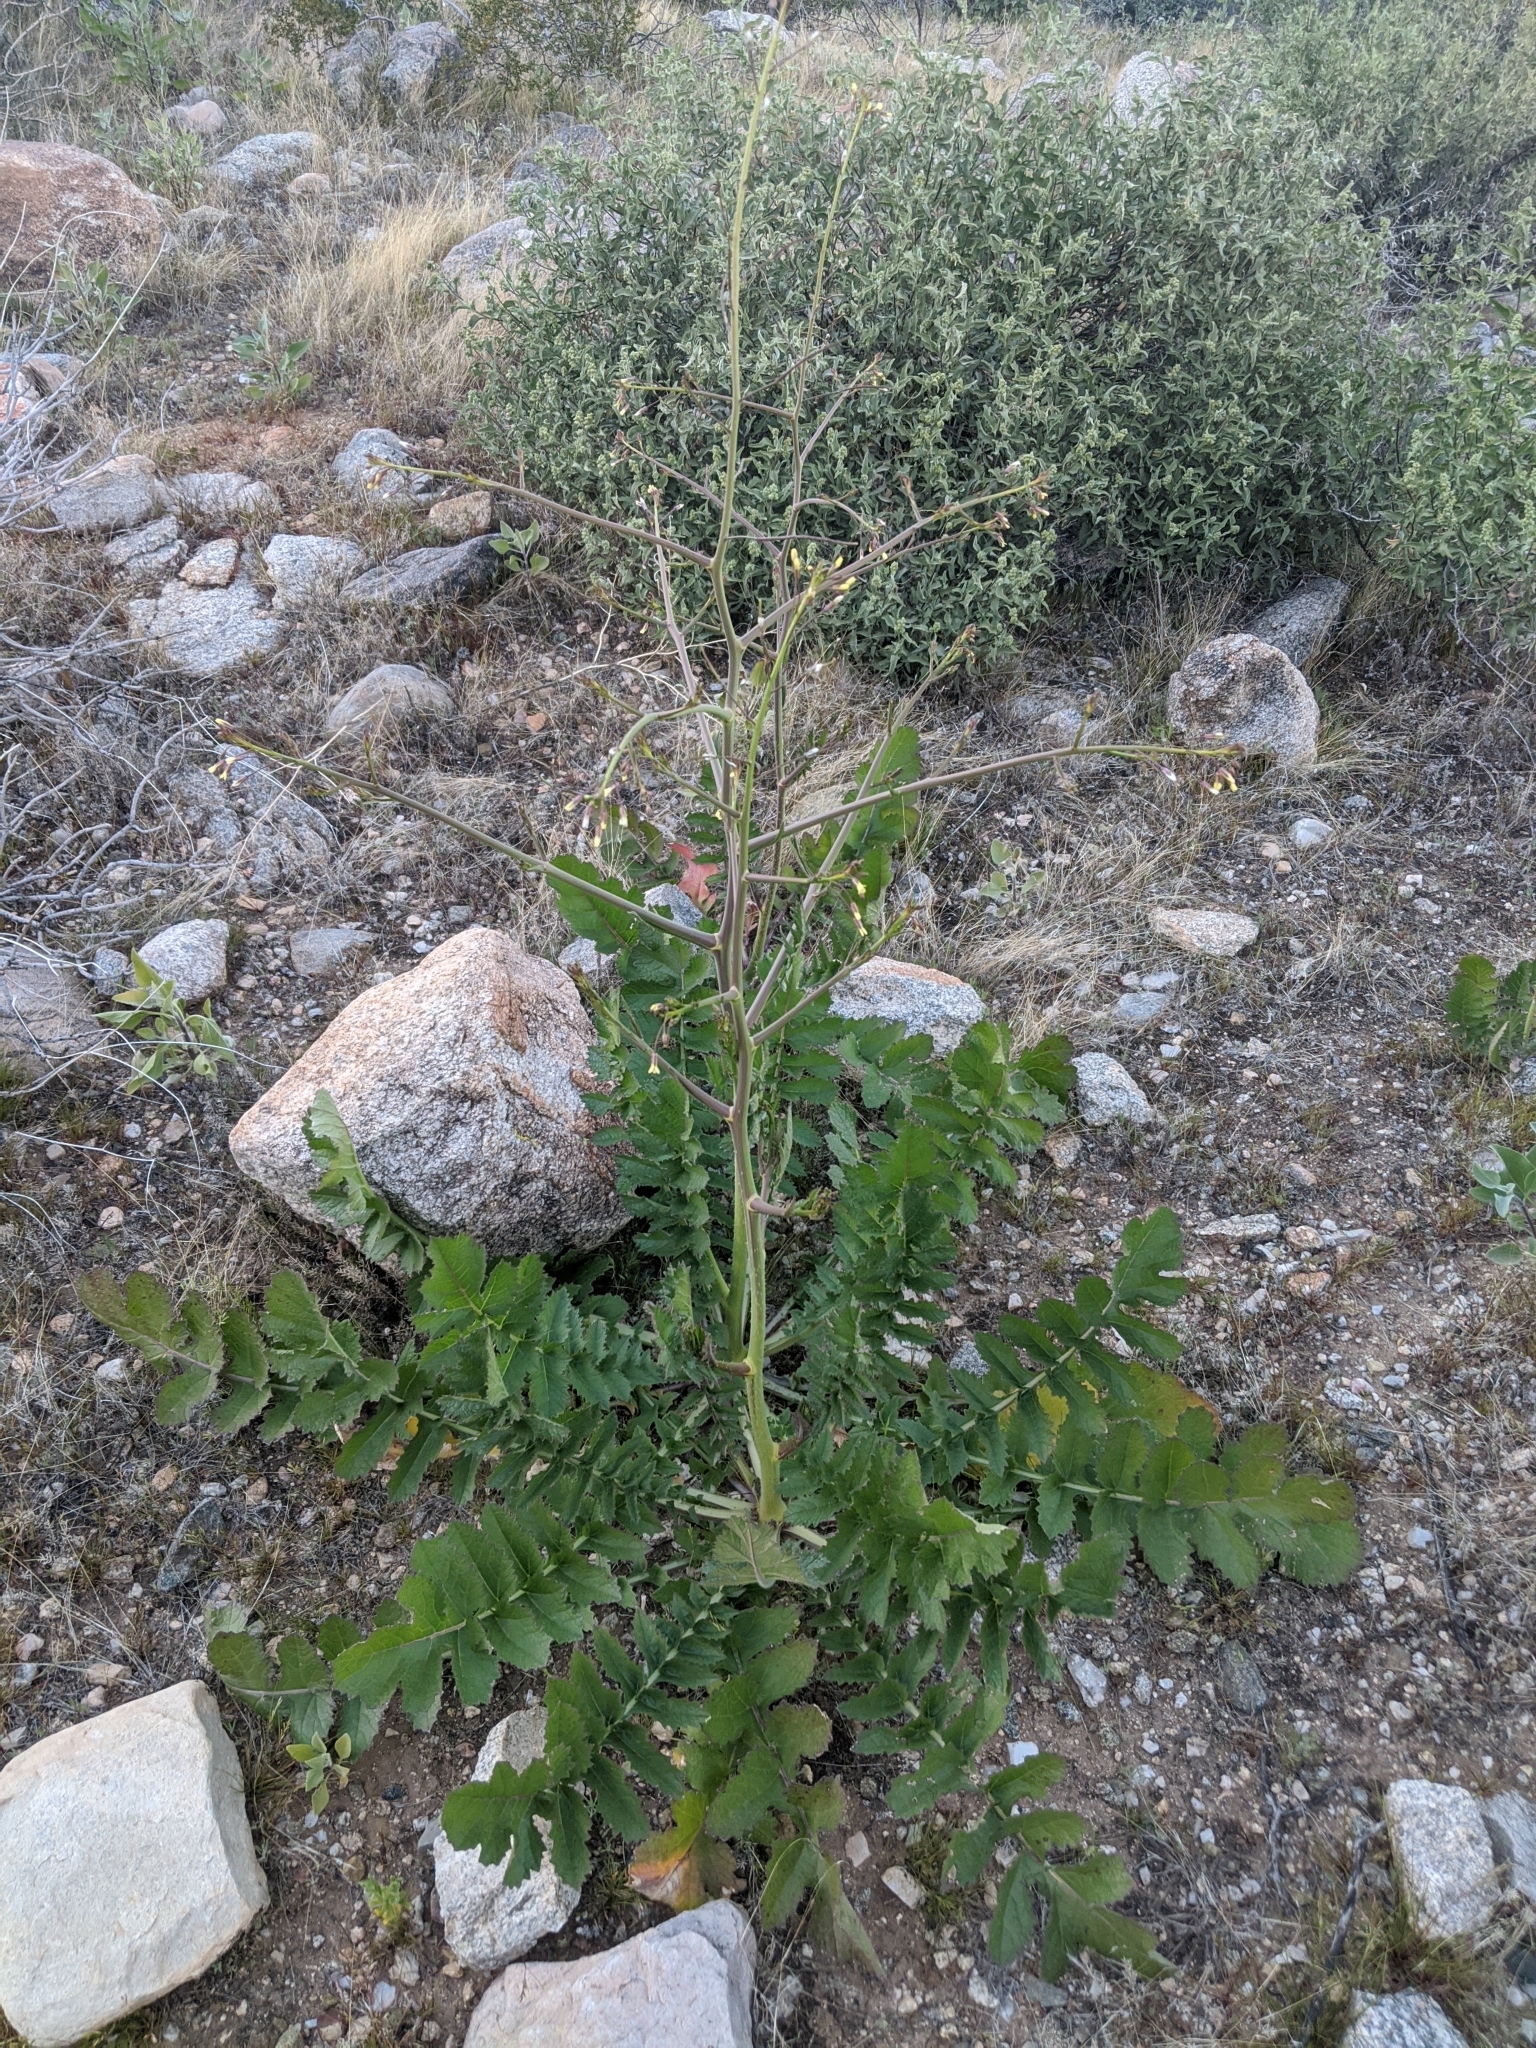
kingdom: Plantae
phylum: Tracheophyta
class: Magnoliopsida
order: Brassicales
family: Brassicaceae
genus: Brassica
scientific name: Brassica tournefortii
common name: Pale cabbage
